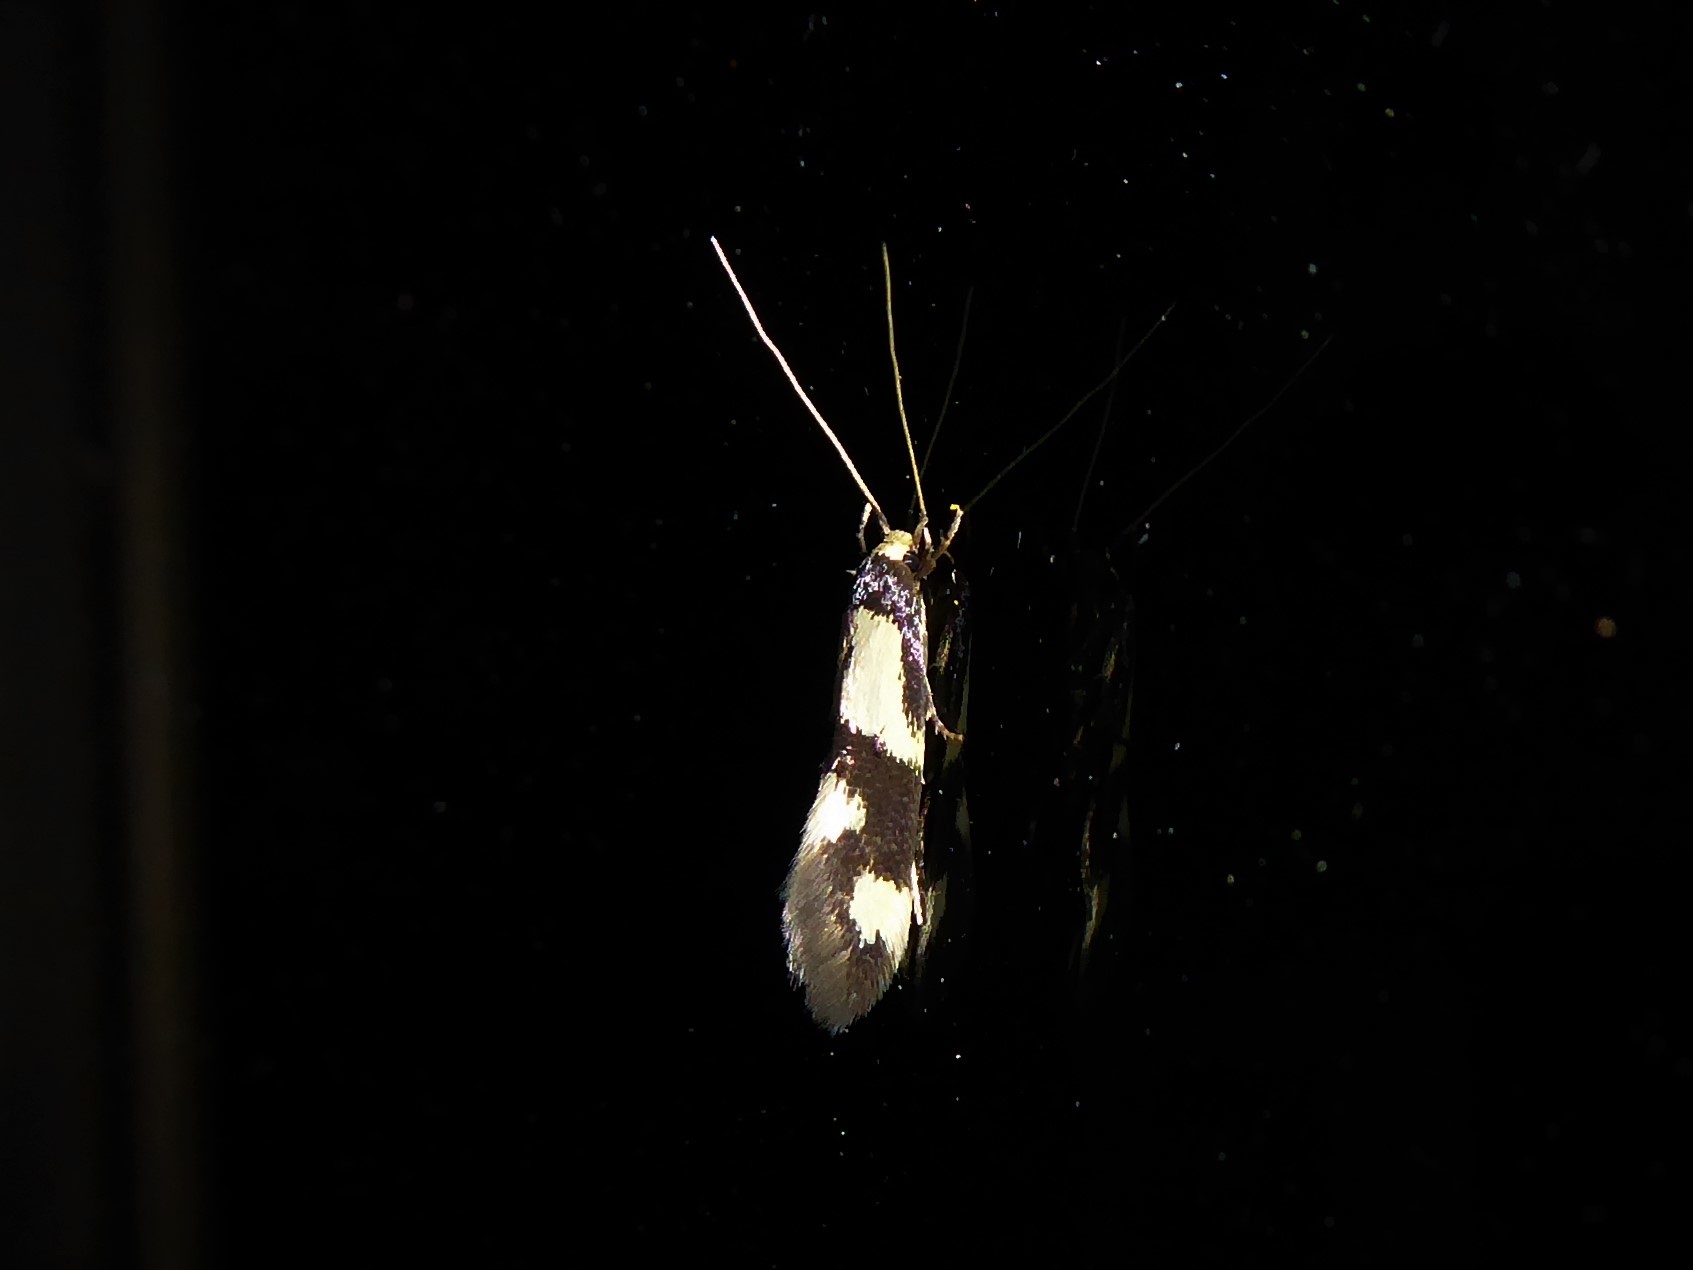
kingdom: Animalia
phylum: Arthropoda
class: Insecta
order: Lepidoptera
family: Tineidae
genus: Opogona
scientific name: Opogona comptella
